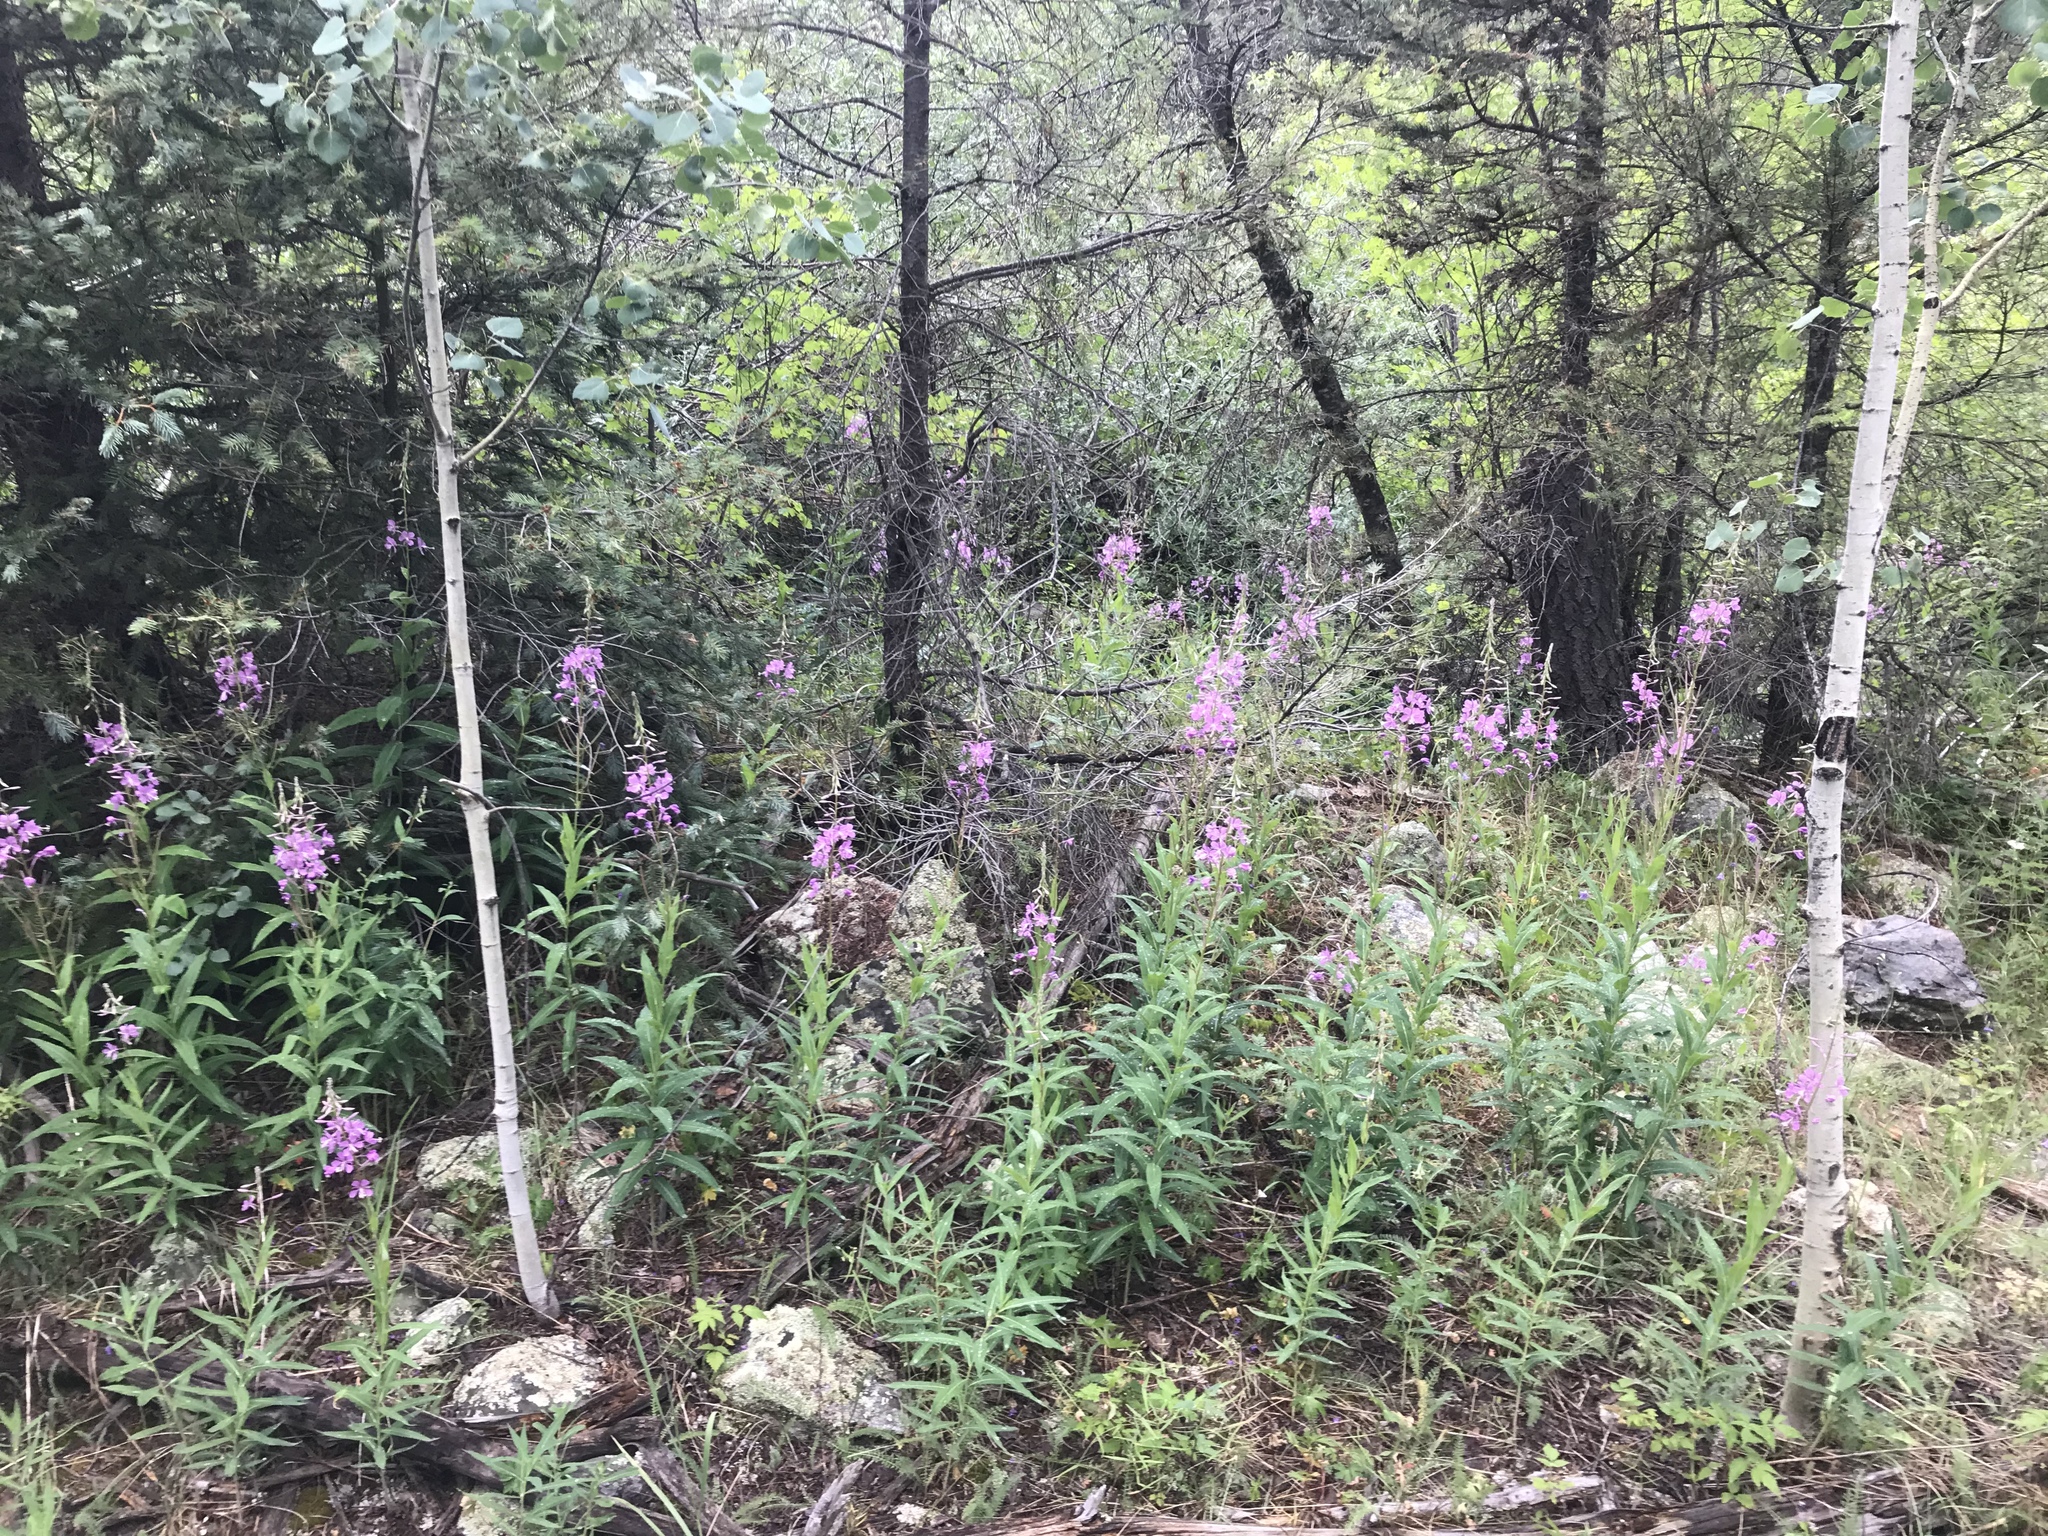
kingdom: Plantae
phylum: Tracheophyta
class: Magnoliopsida
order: Myrtales
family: Onagraceae
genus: Chamaenerion
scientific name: Chamaenerion angustifolium
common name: Fireweed
